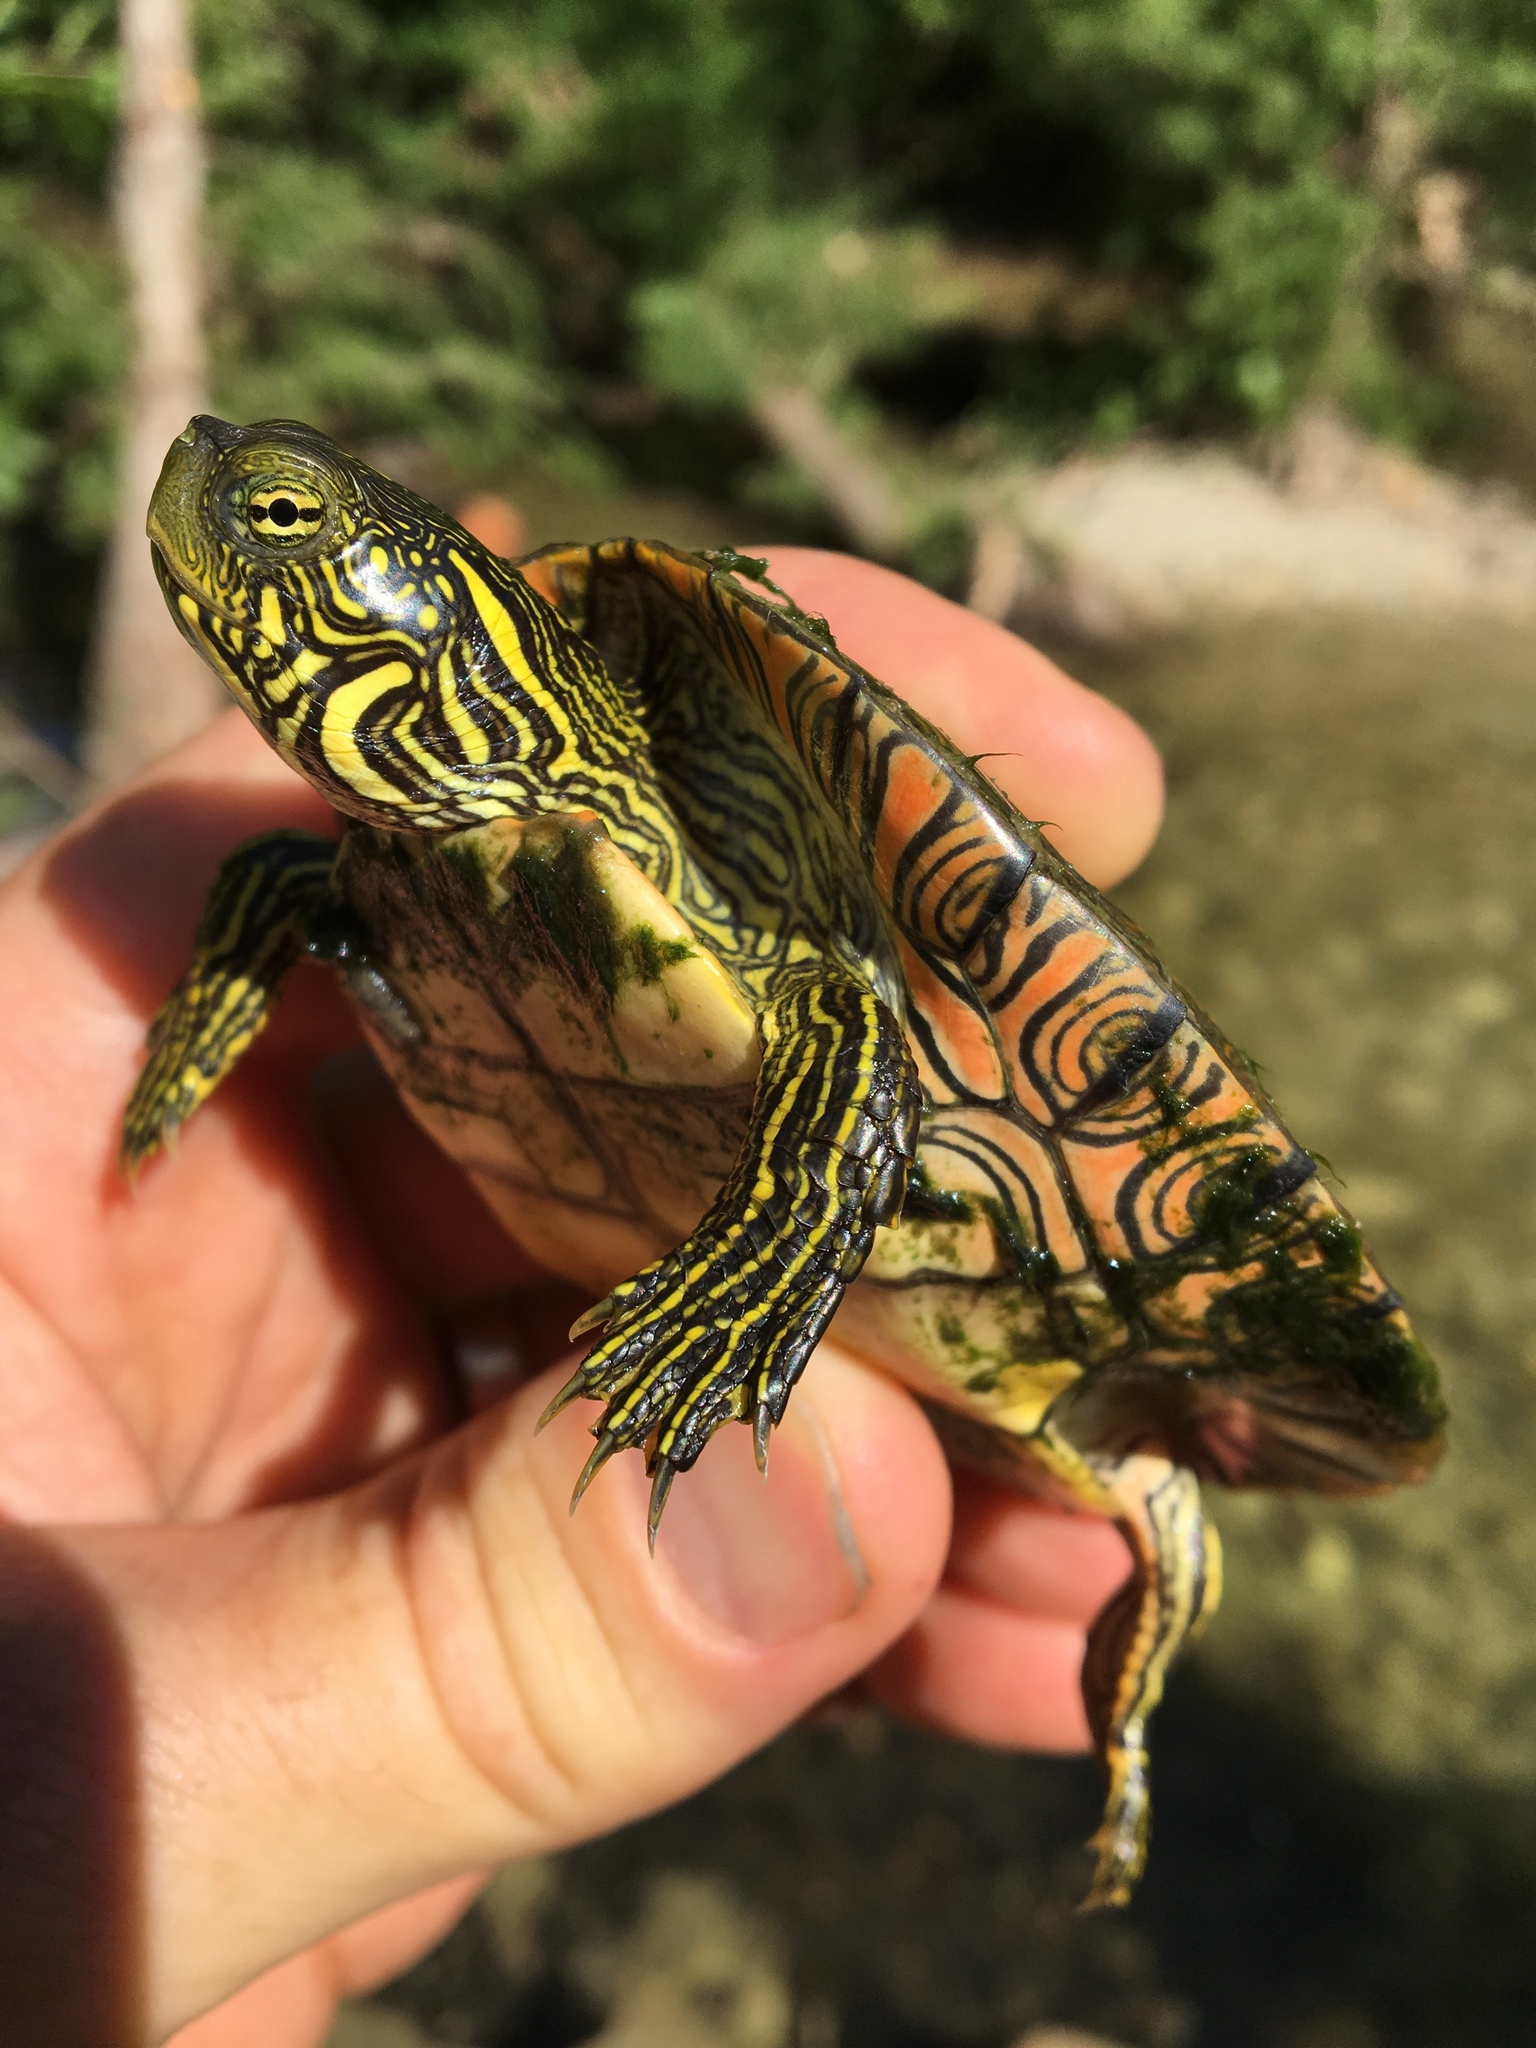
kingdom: Animalia
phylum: Chordata
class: Testudines
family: Emydidae
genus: Pseudemys
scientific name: Pseudemys texana
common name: Texas river cooter
